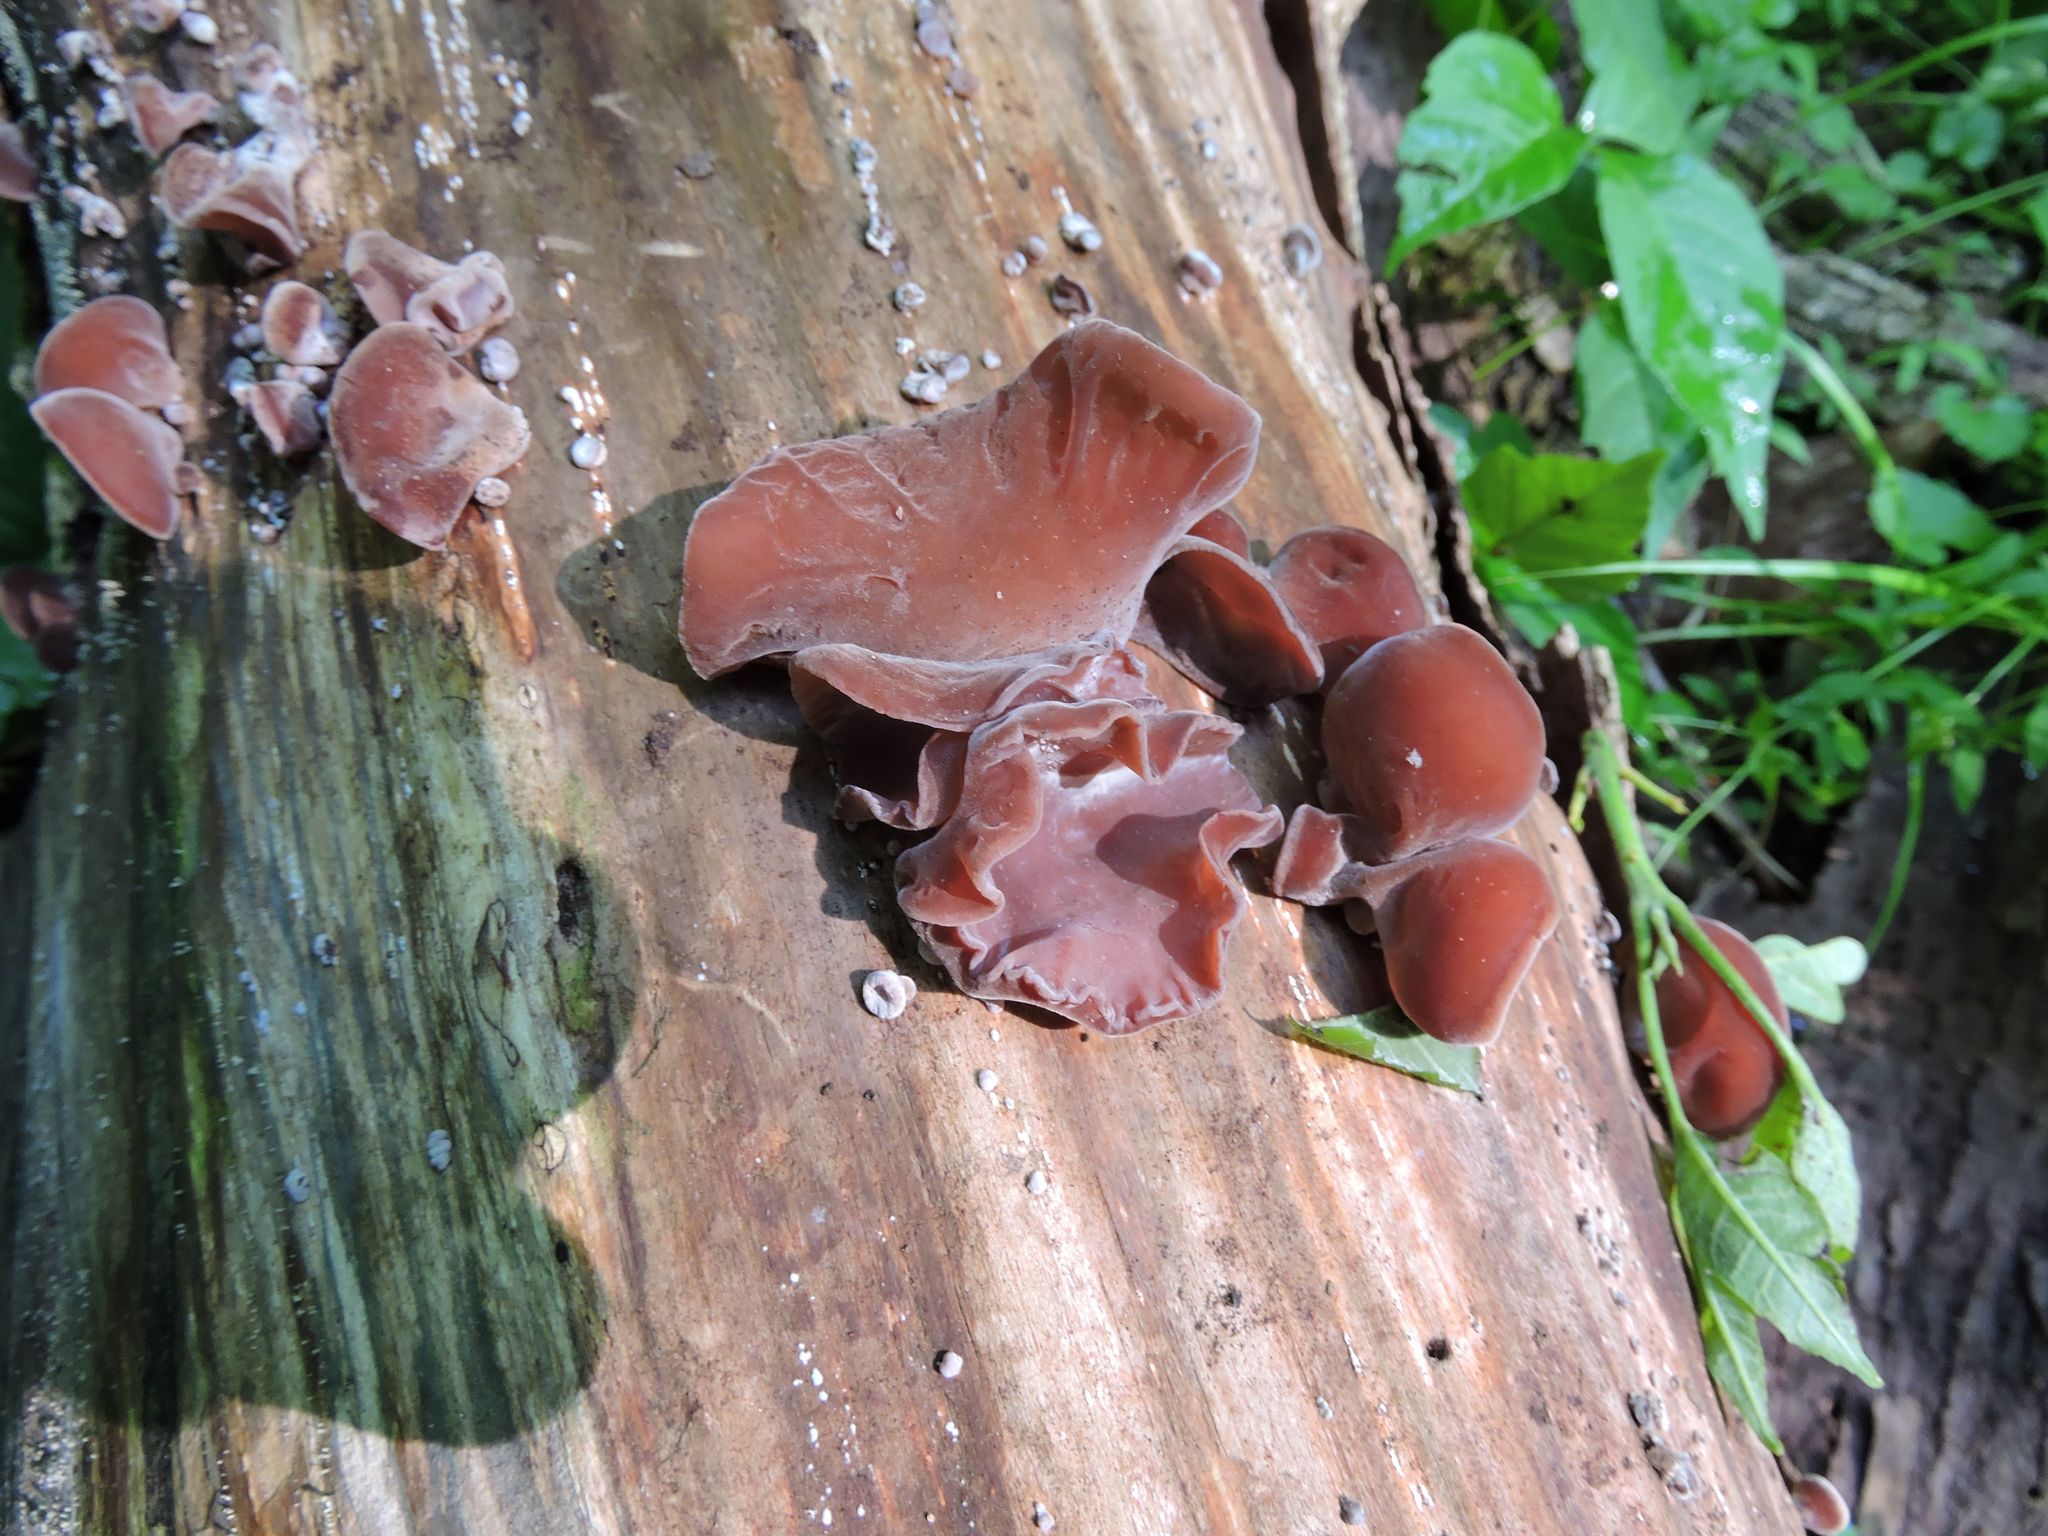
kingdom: Fungi
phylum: Basidiomycota
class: Agaricomycetes
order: Auriculariales
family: Auriculariaceae
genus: Auricularia
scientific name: Auricularia americana
